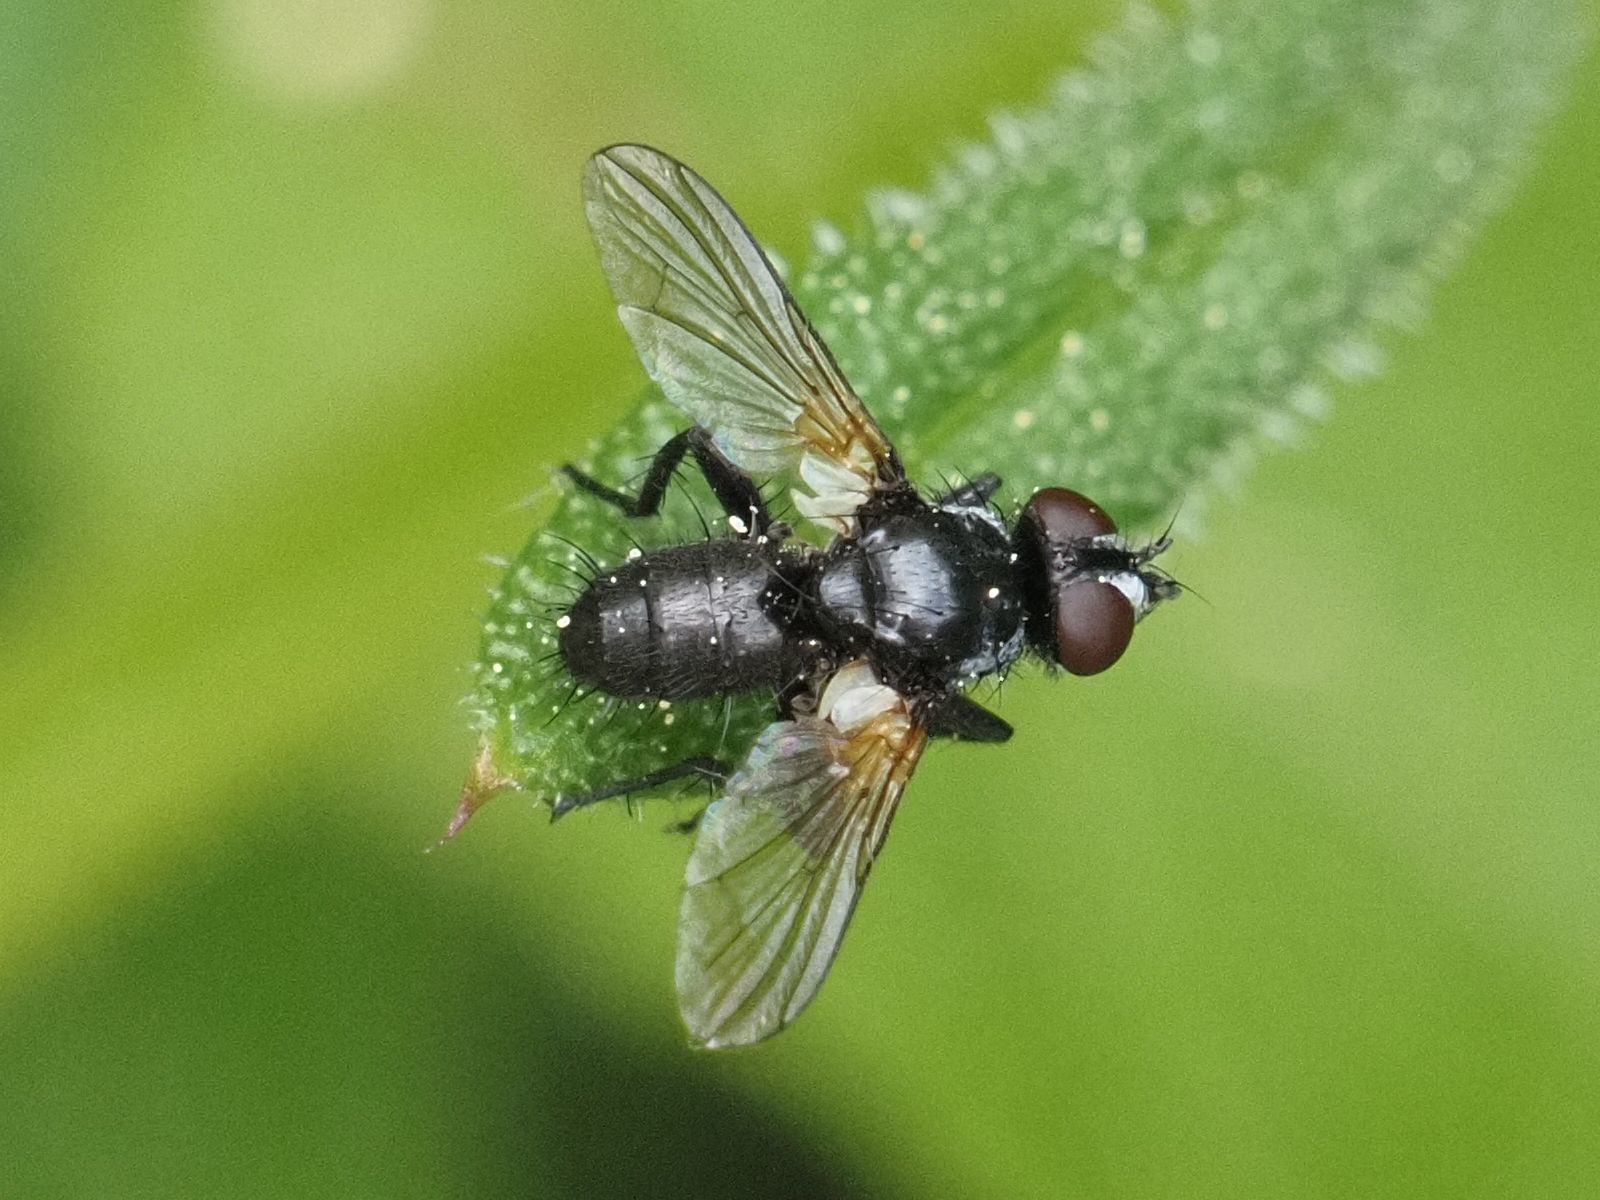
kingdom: Animalia
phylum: Arthropoda
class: Insecta
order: Diptera
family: Tachinidae
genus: Phania
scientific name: Phania funesta
